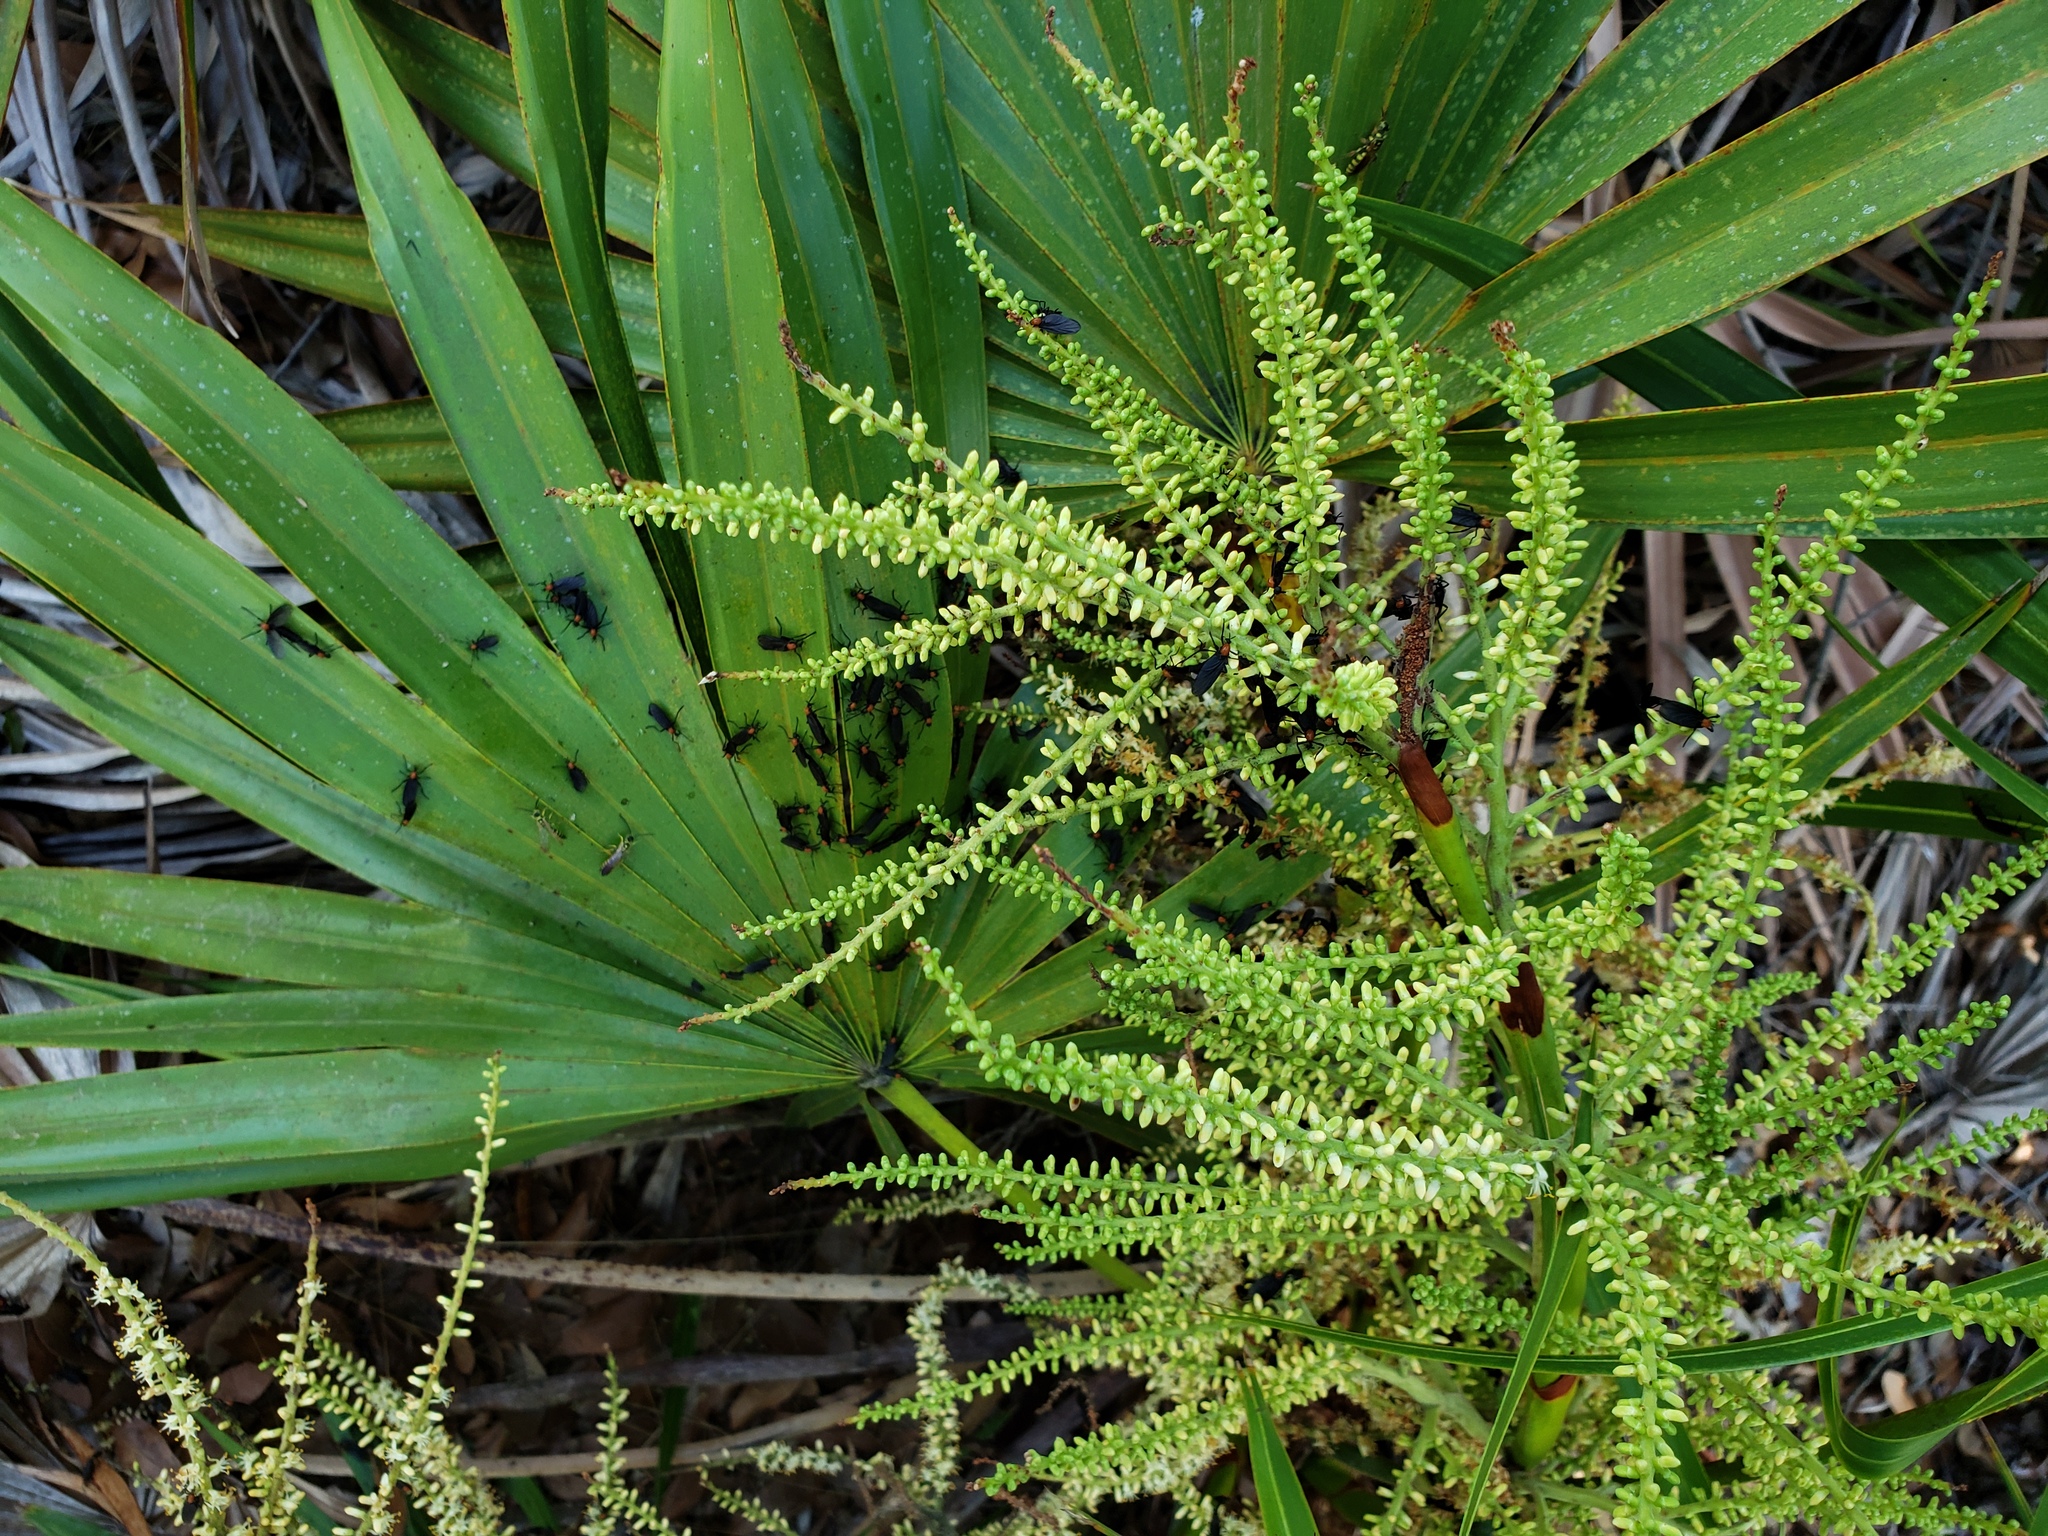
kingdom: Animalia
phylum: Arthropoda
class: Insecta
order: Diptera
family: Bibionidae
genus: Plecia
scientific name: Plecia nearctica
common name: March fly
